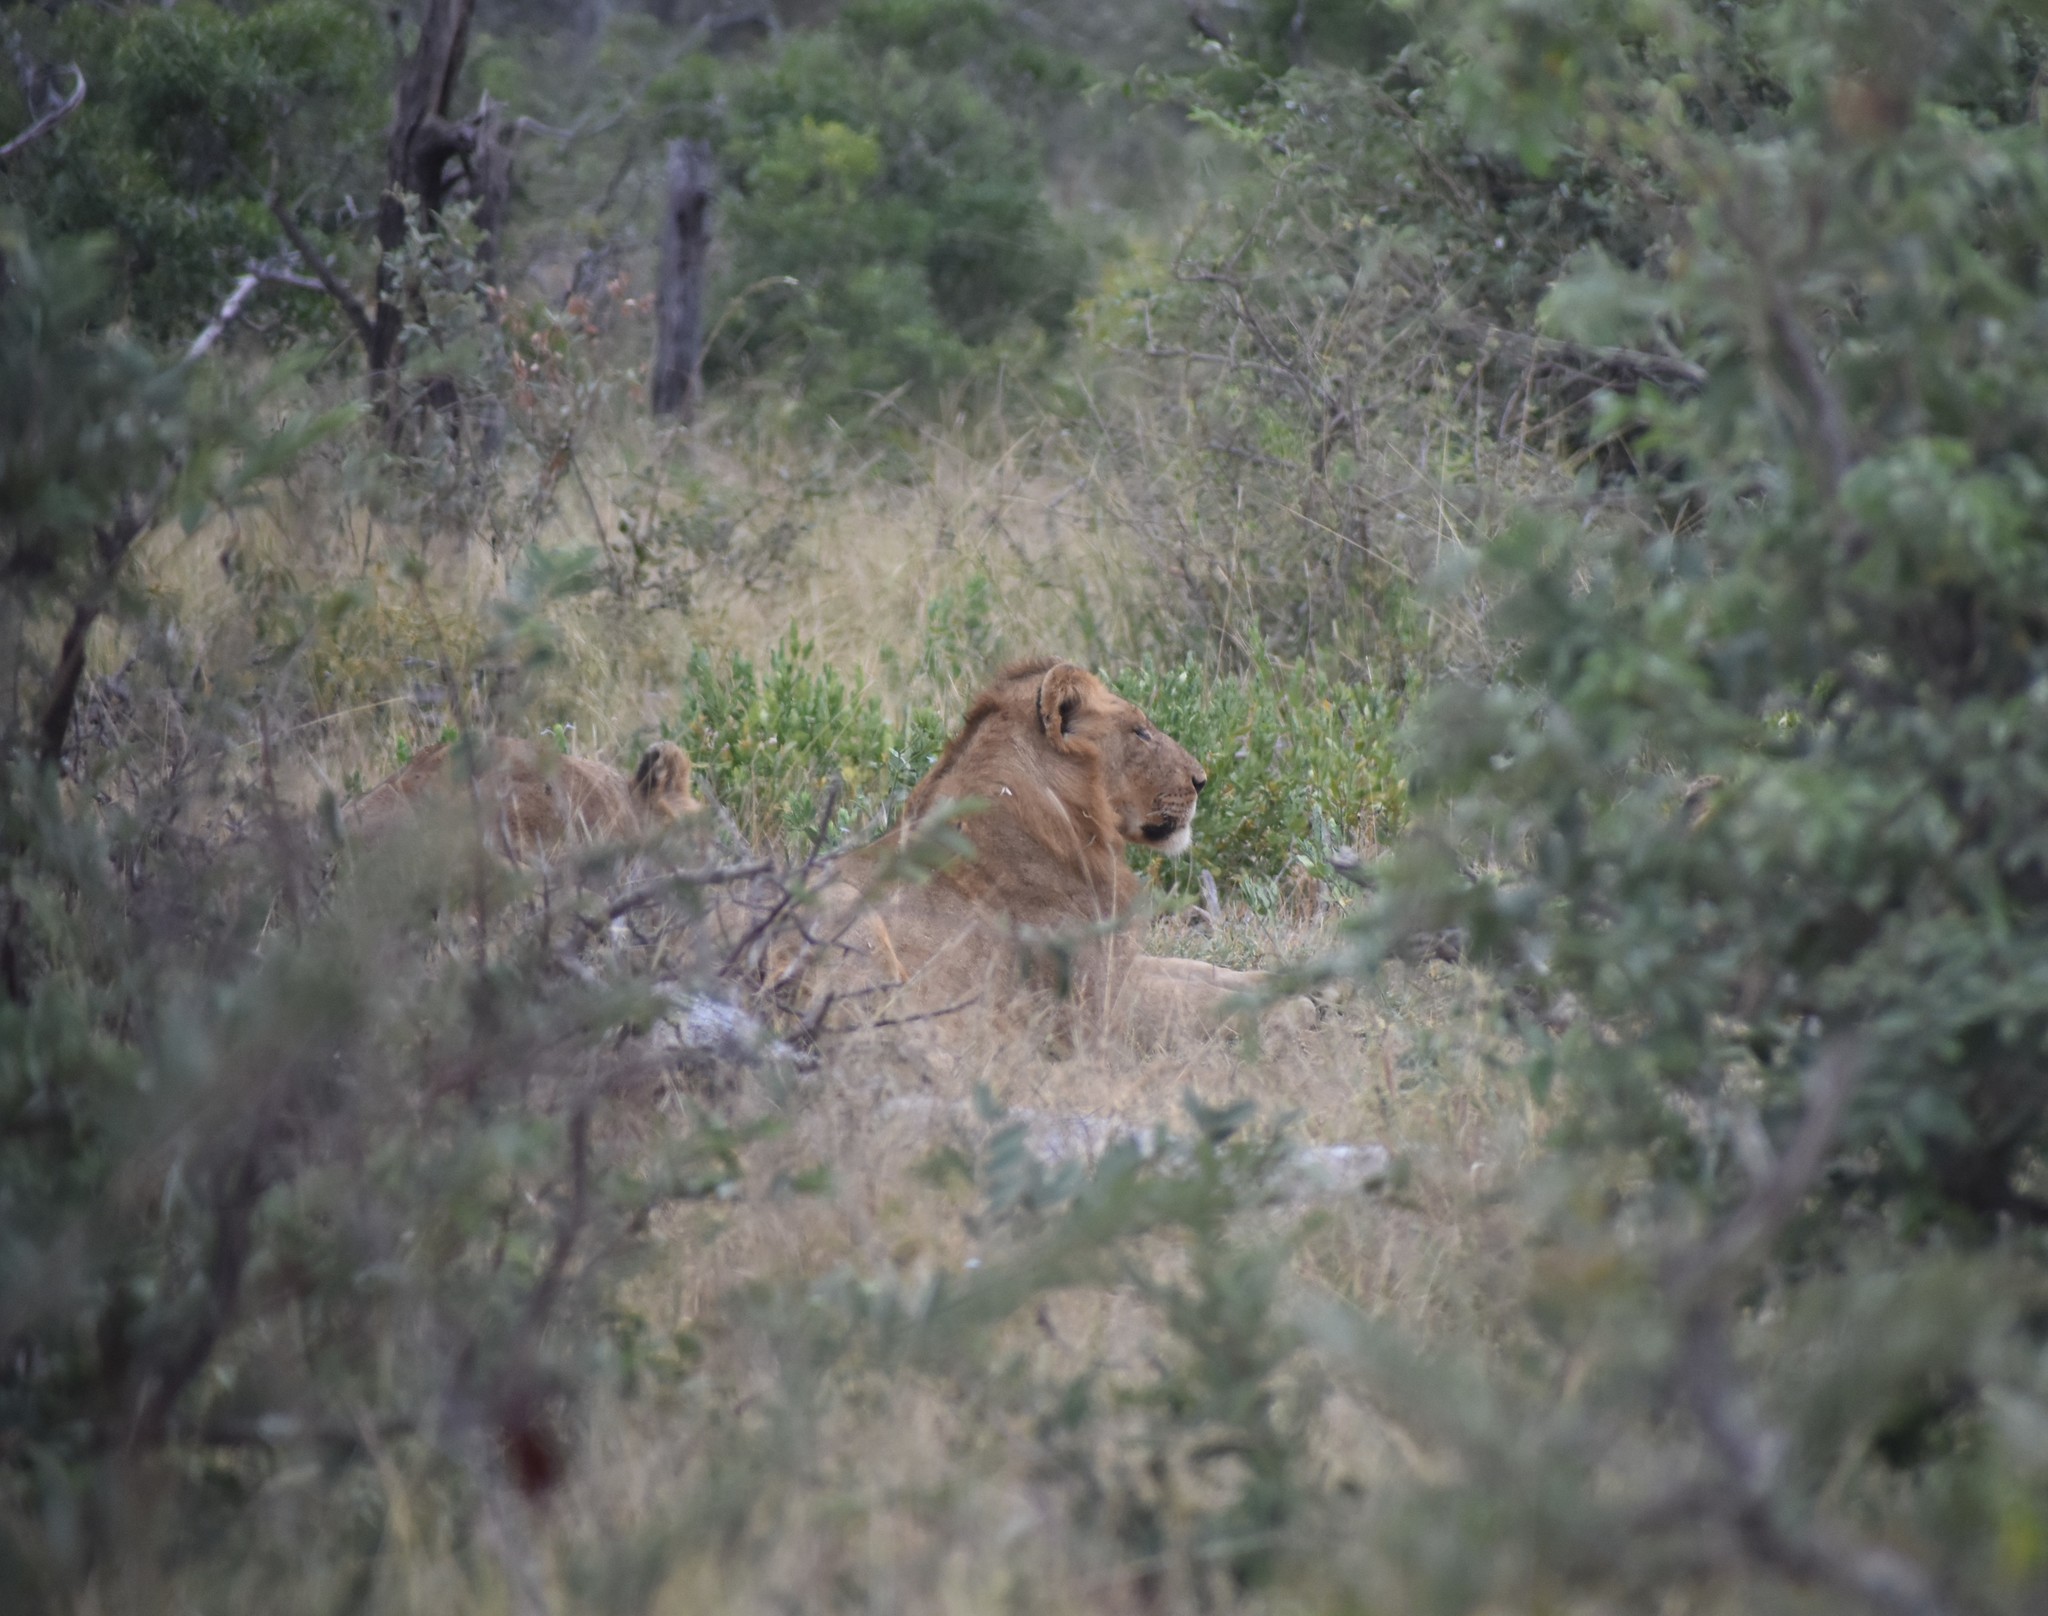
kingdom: Animalia
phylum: Chordata
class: Mammalia
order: Carnivora
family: Felidae
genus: Panthera
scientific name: Panthera leo
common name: Lion
